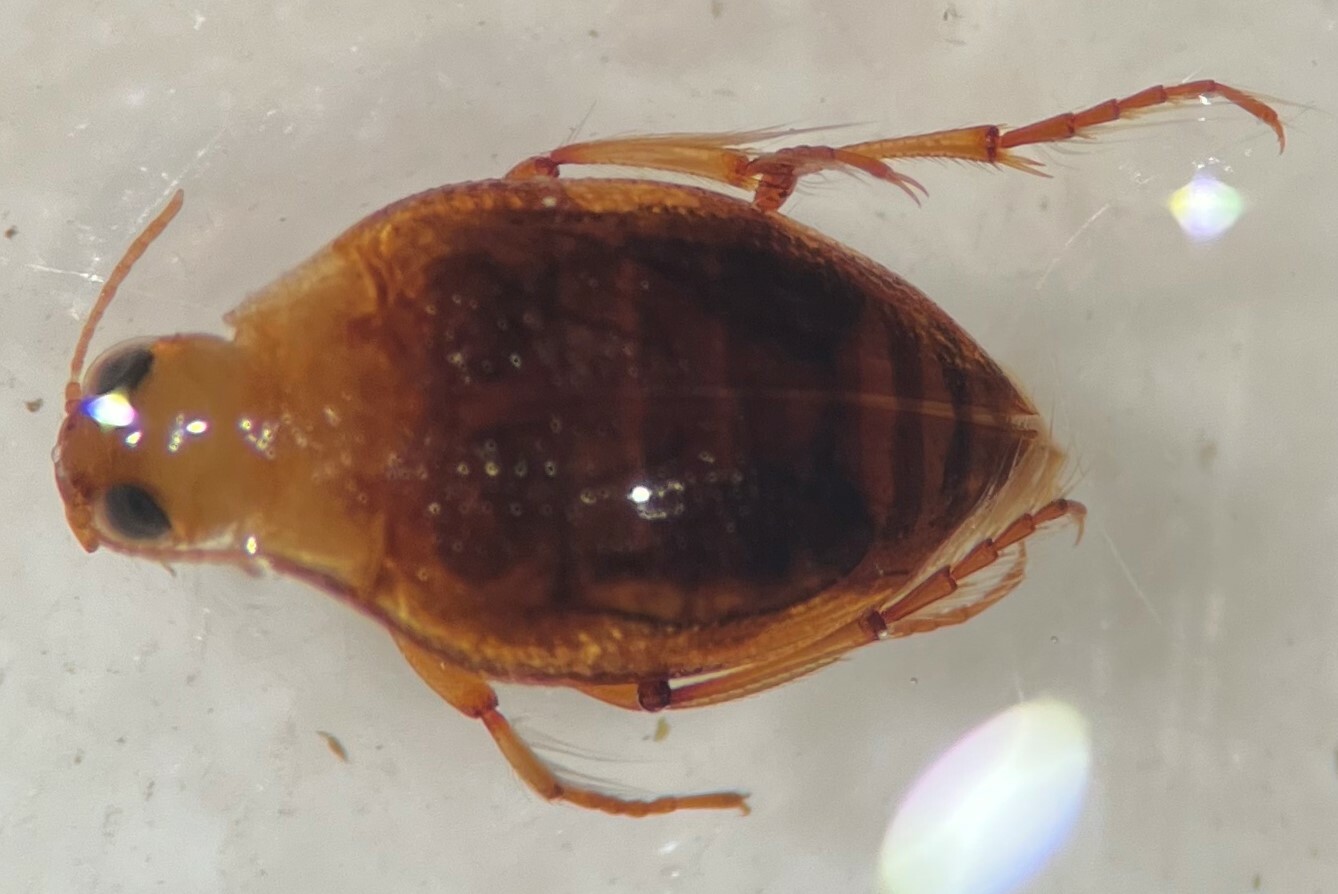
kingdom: Animalia
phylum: Arthropoda
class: Insecta
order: Coleoptera
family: Haliplidae
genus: Haliplus
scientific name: Haliplus mimeticus
